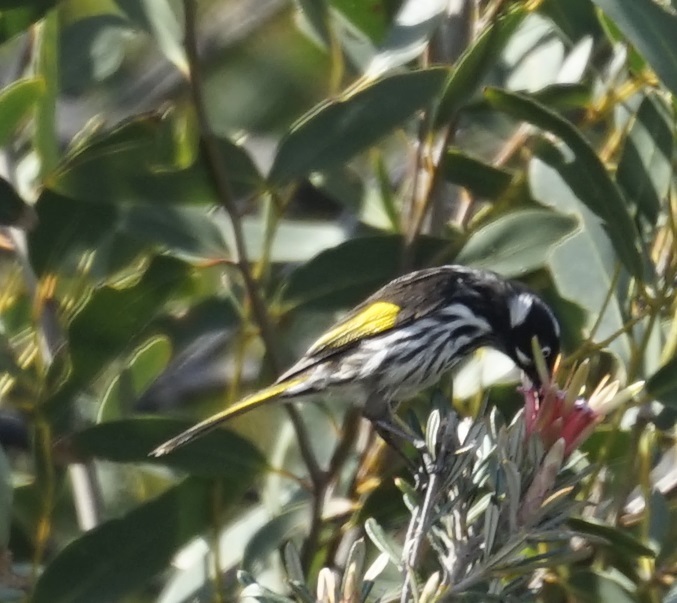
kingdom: Animalia
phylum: Chordata
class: Aves
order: Passeriformes
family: Meliphagidae
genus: Phylidonyris
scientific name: Phylidonyris novaehollandiae
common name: New holland honeyeater
